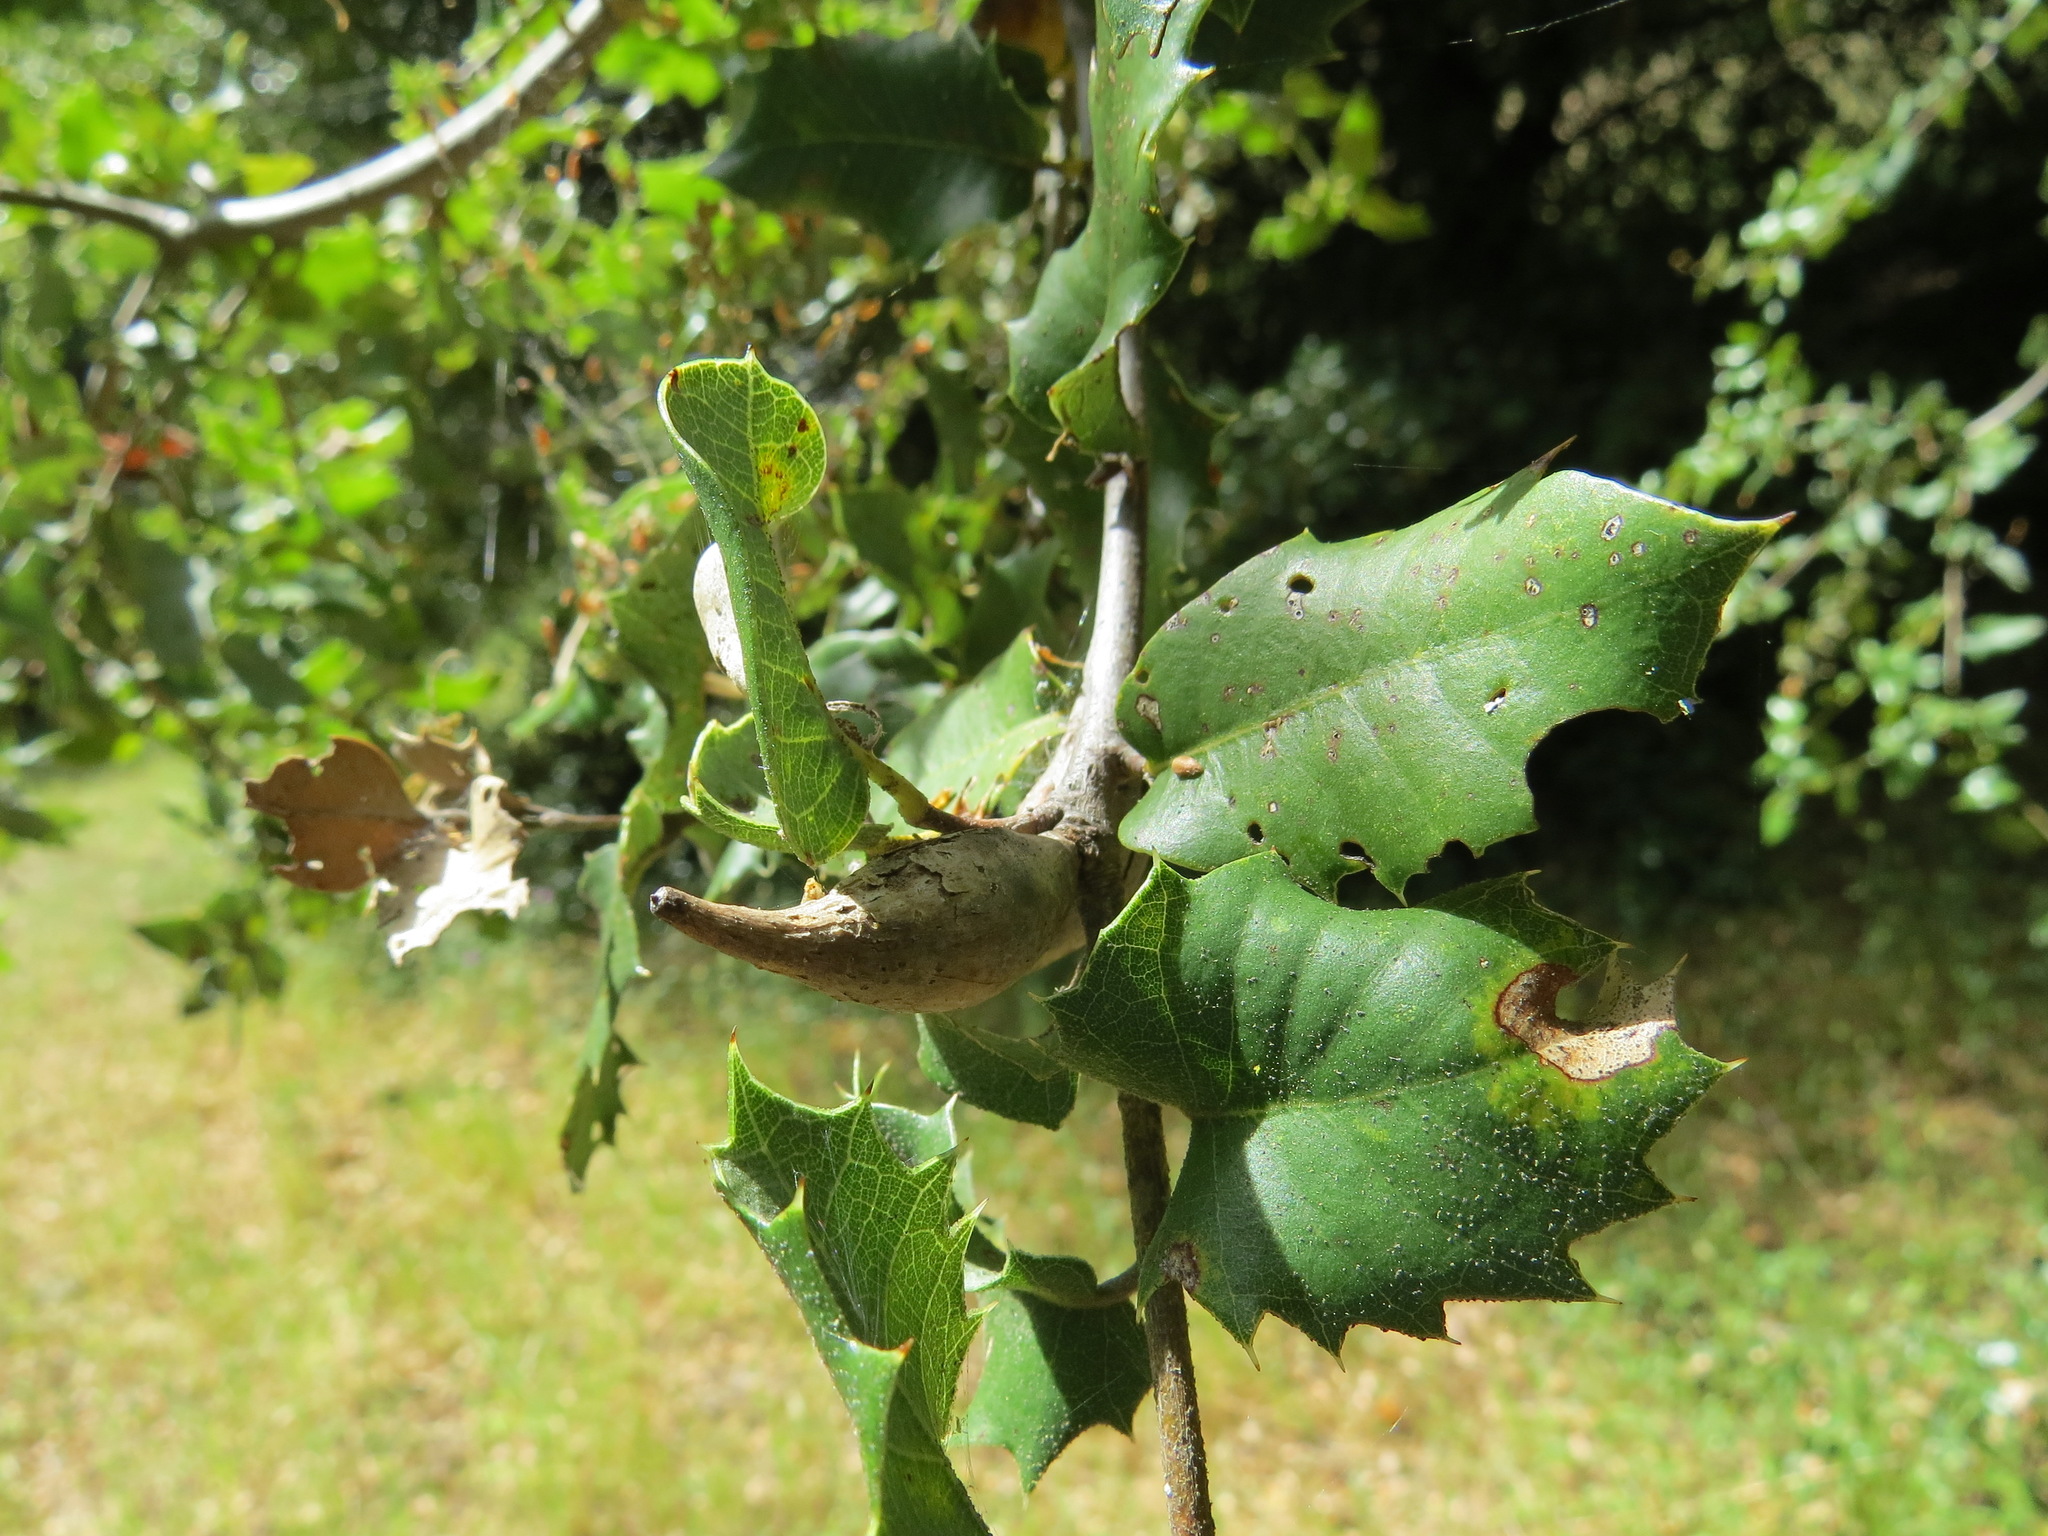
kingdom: Animalia
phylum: Arthropoda
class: Insecta
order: Hymenoptera
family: Cynipidae
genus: Heteroecus
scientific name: Heteroecus pacificus
